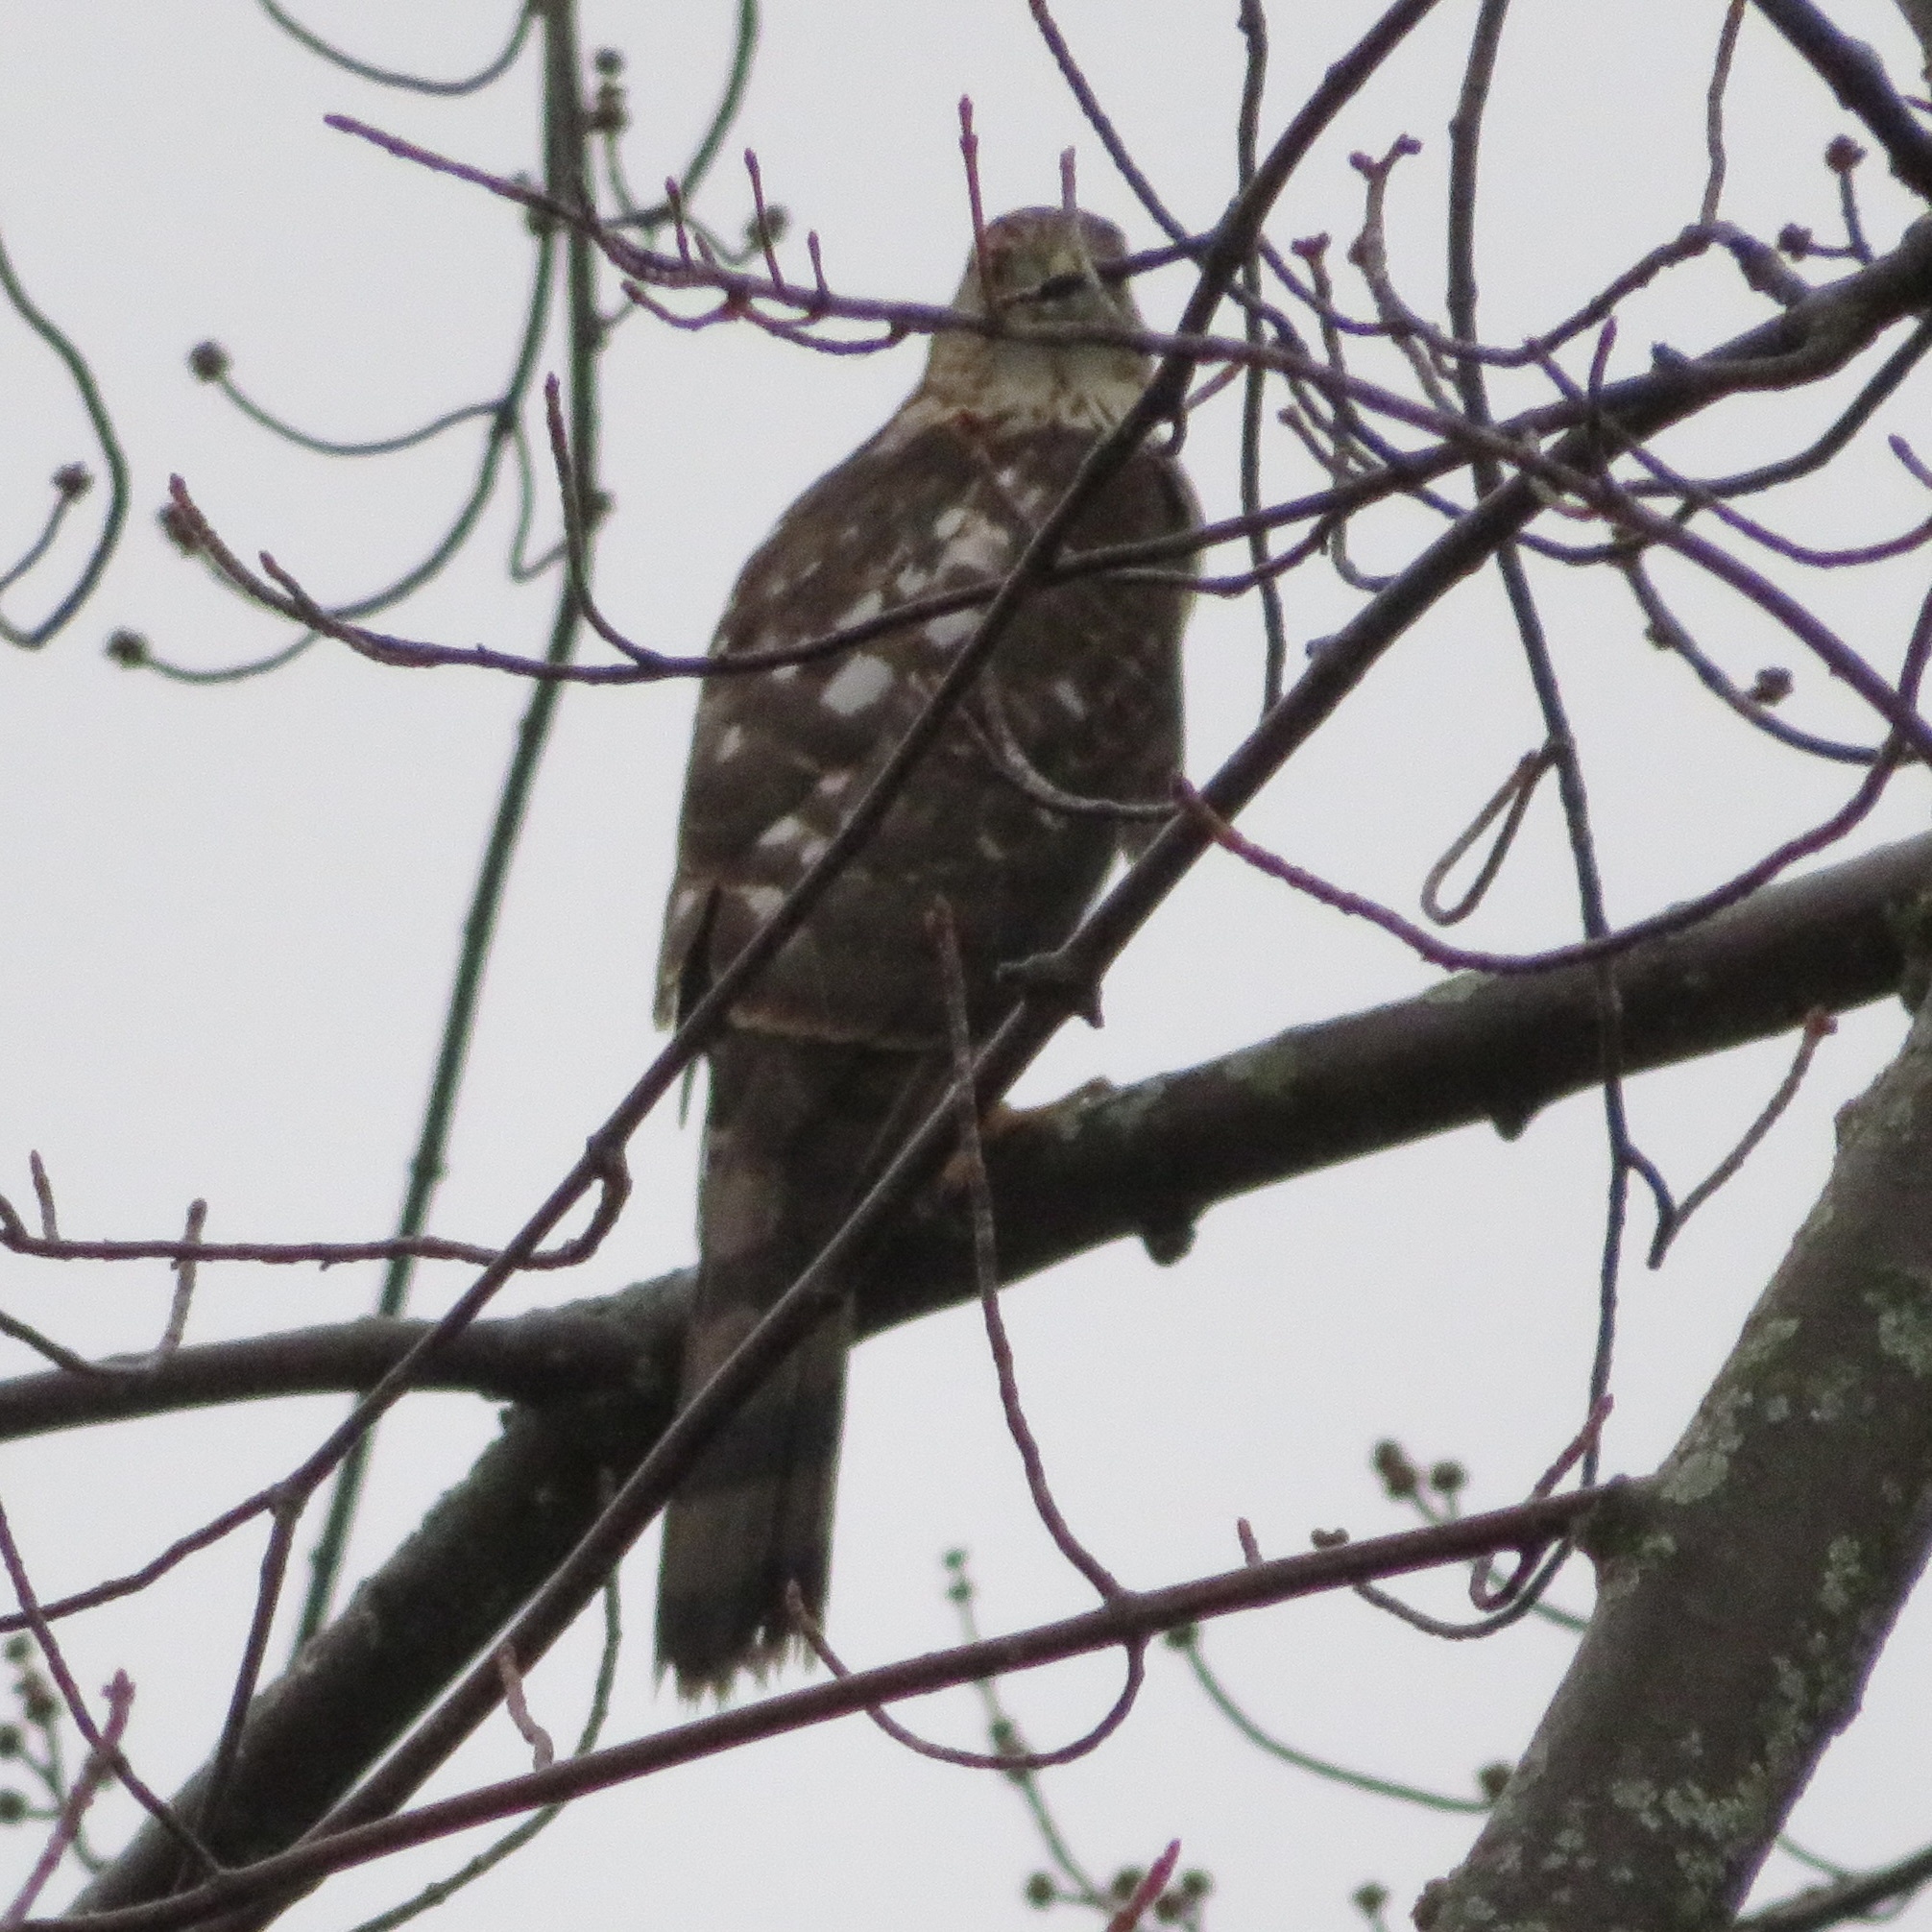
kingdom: Animalia
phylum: Chordata
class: Aves
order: Accipitriformes
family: Accipitridae
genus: Accipiter
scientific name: Accipiter cooperii
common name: Cooper's hawk
